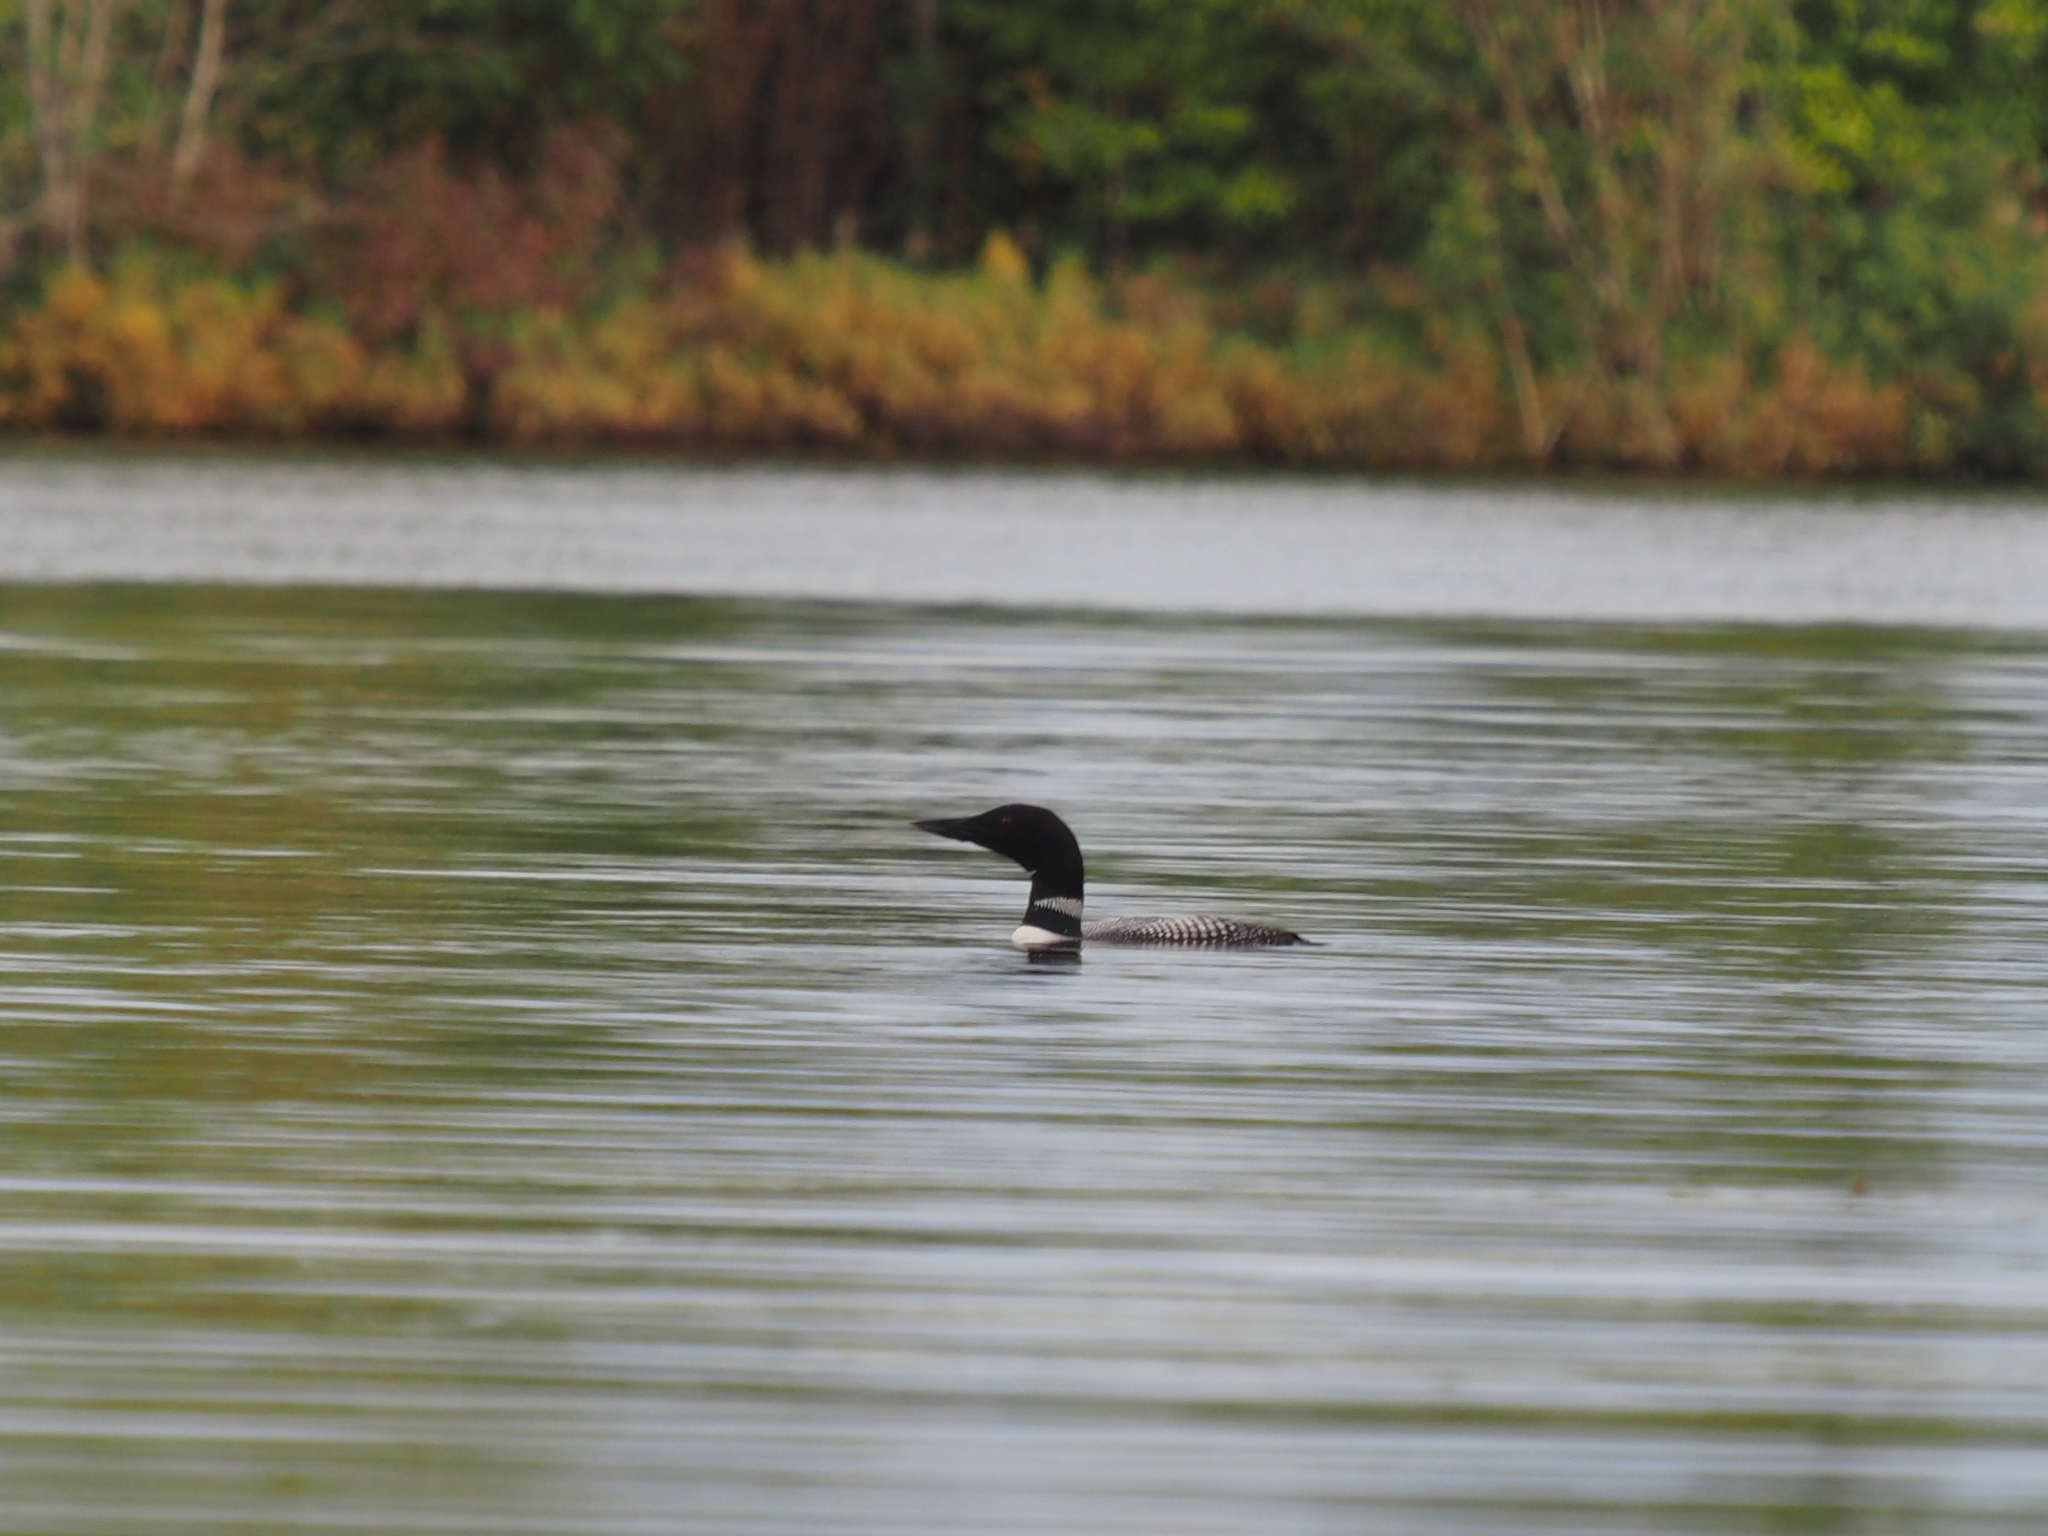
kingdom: Animalia
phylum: Chordata
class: Aves
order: Gaviiformes
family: Gaviidae
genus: Gavia
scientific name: Gavia immer
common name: Common loon
